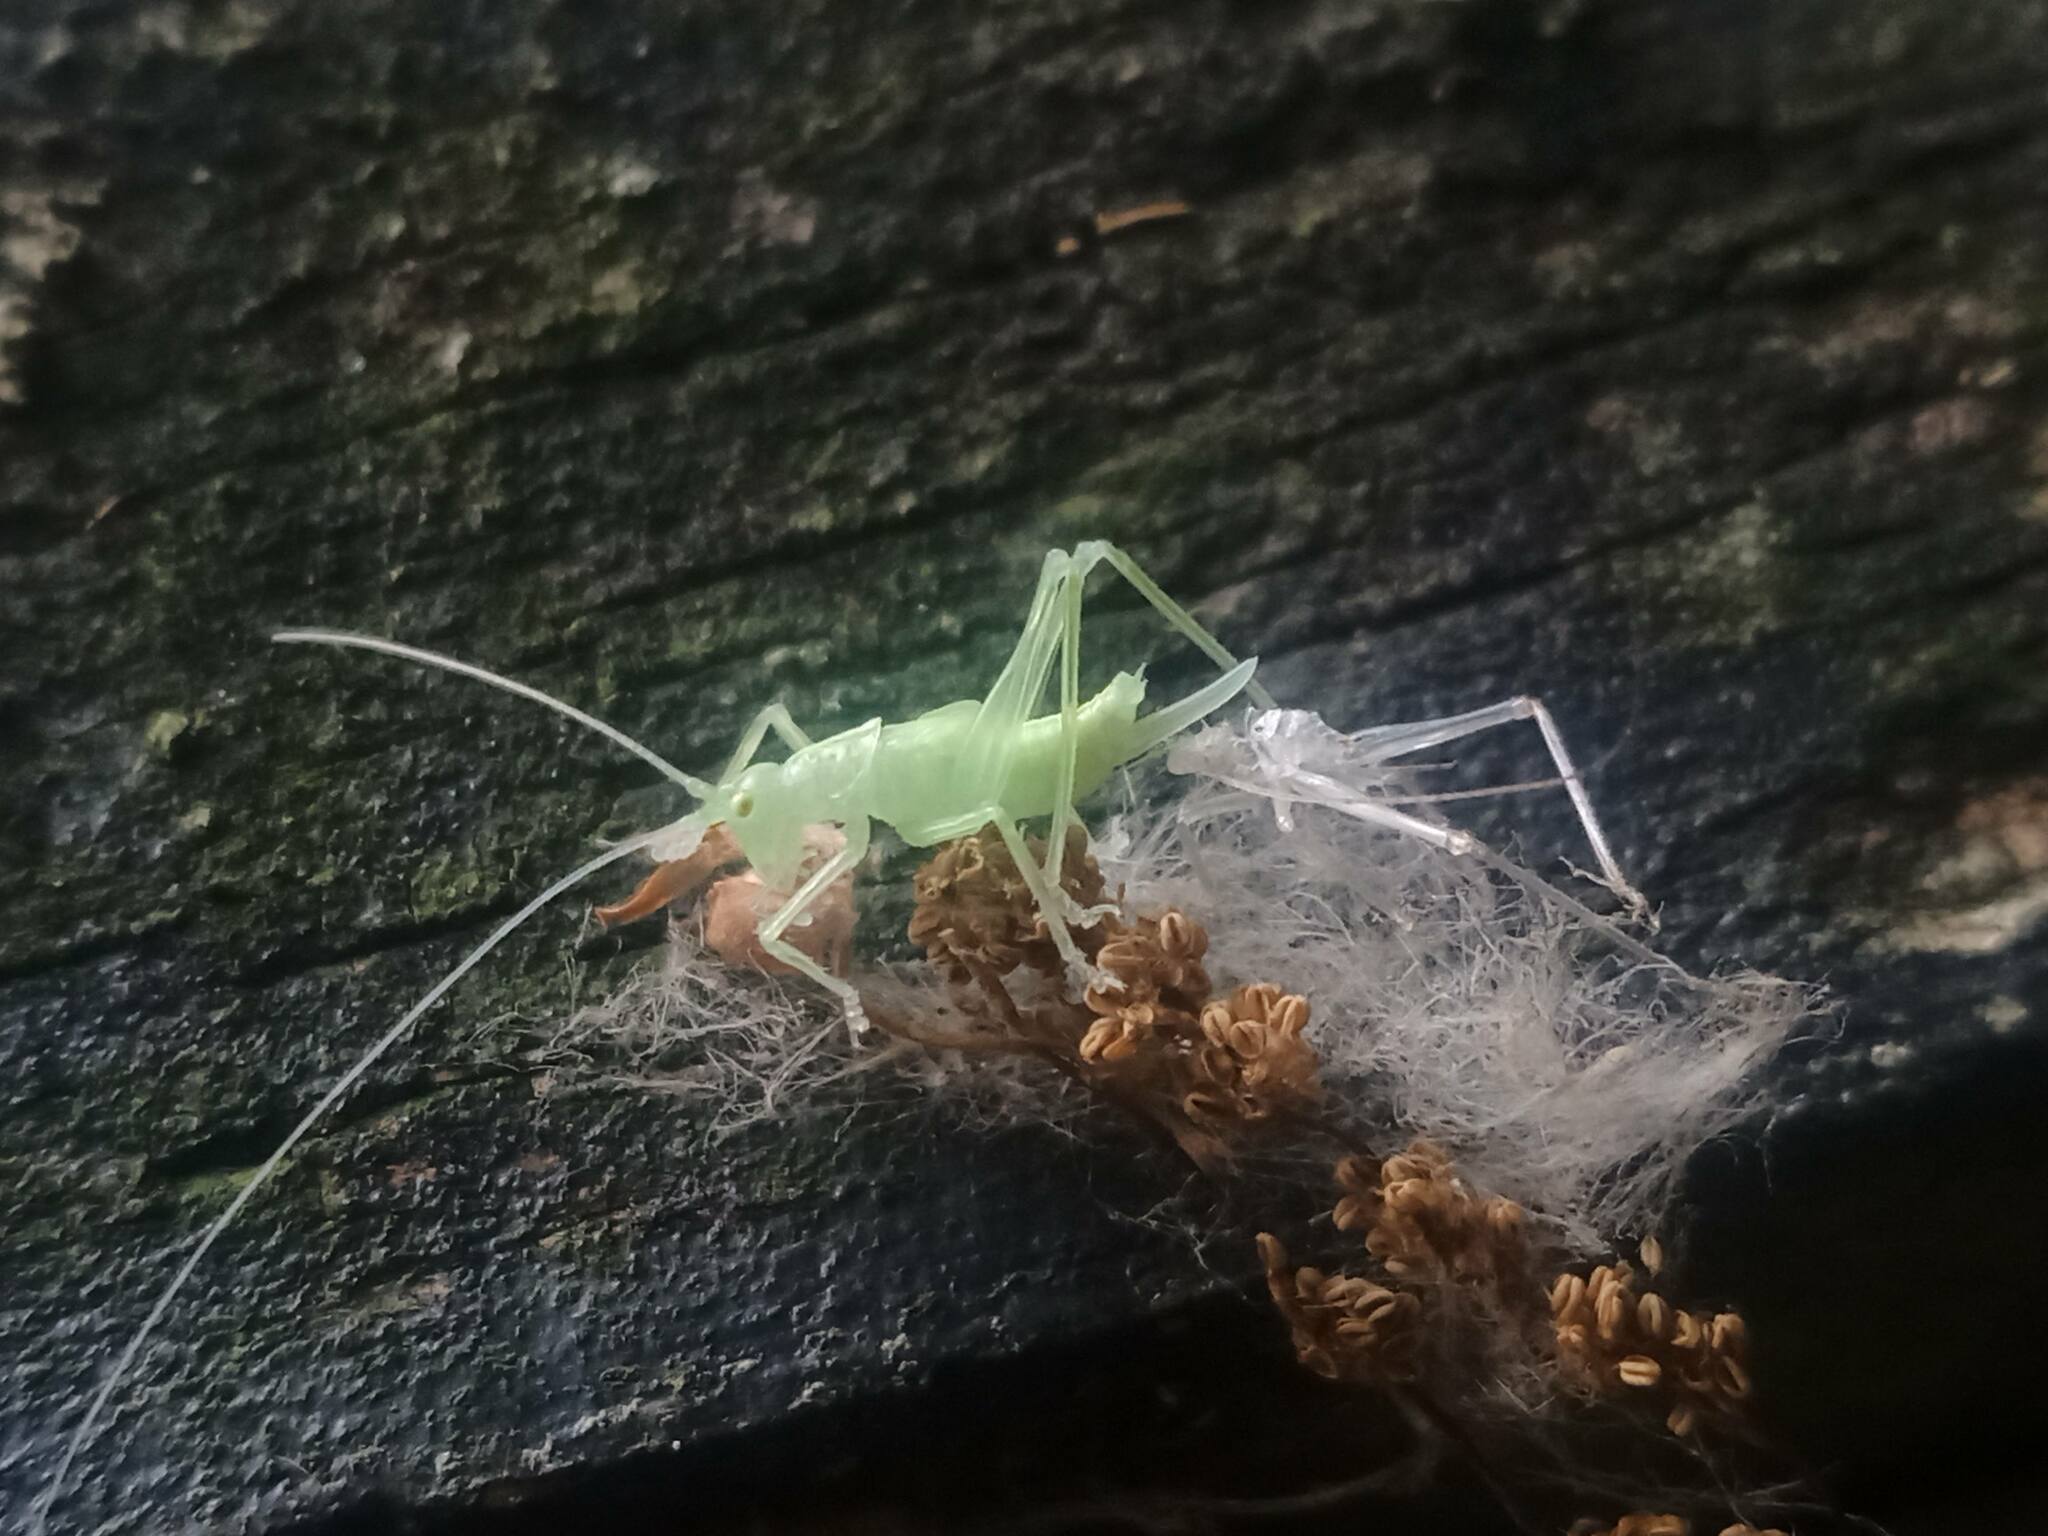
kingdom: Animalia
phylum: Arthropoda
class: Insecta
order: Orthoptera
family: Tettigoniidae
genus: Meconema
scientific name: Meconema thalassinum
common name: Oak bush-cricket
